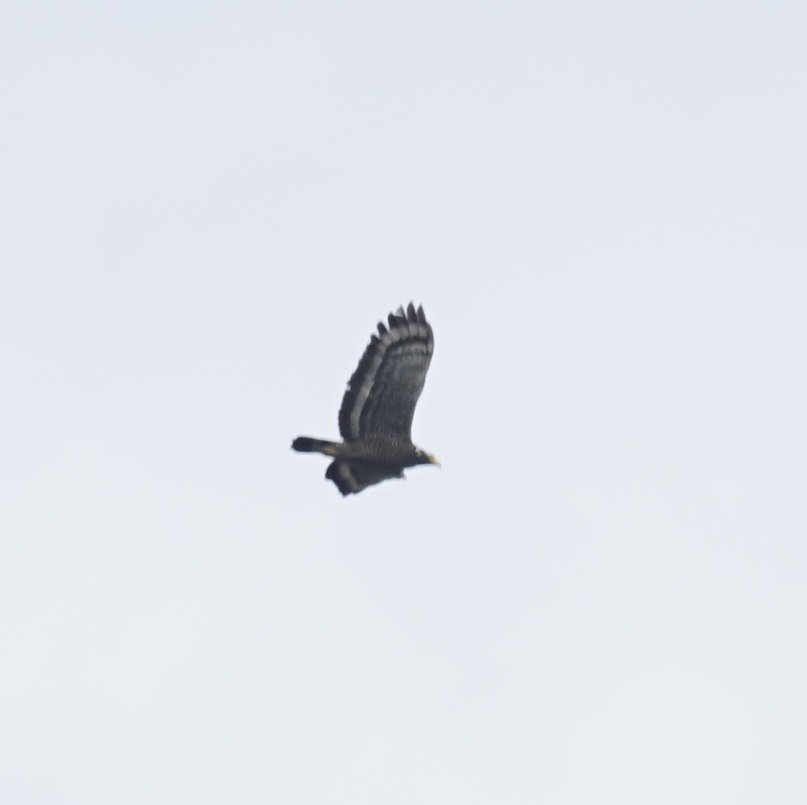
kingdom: Animalia
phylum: Chordata
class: Aves
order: Accipitriformes
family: Accipitridae
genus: Spilornis
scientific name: Spilornis cheela
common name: Crested serpent eagle
